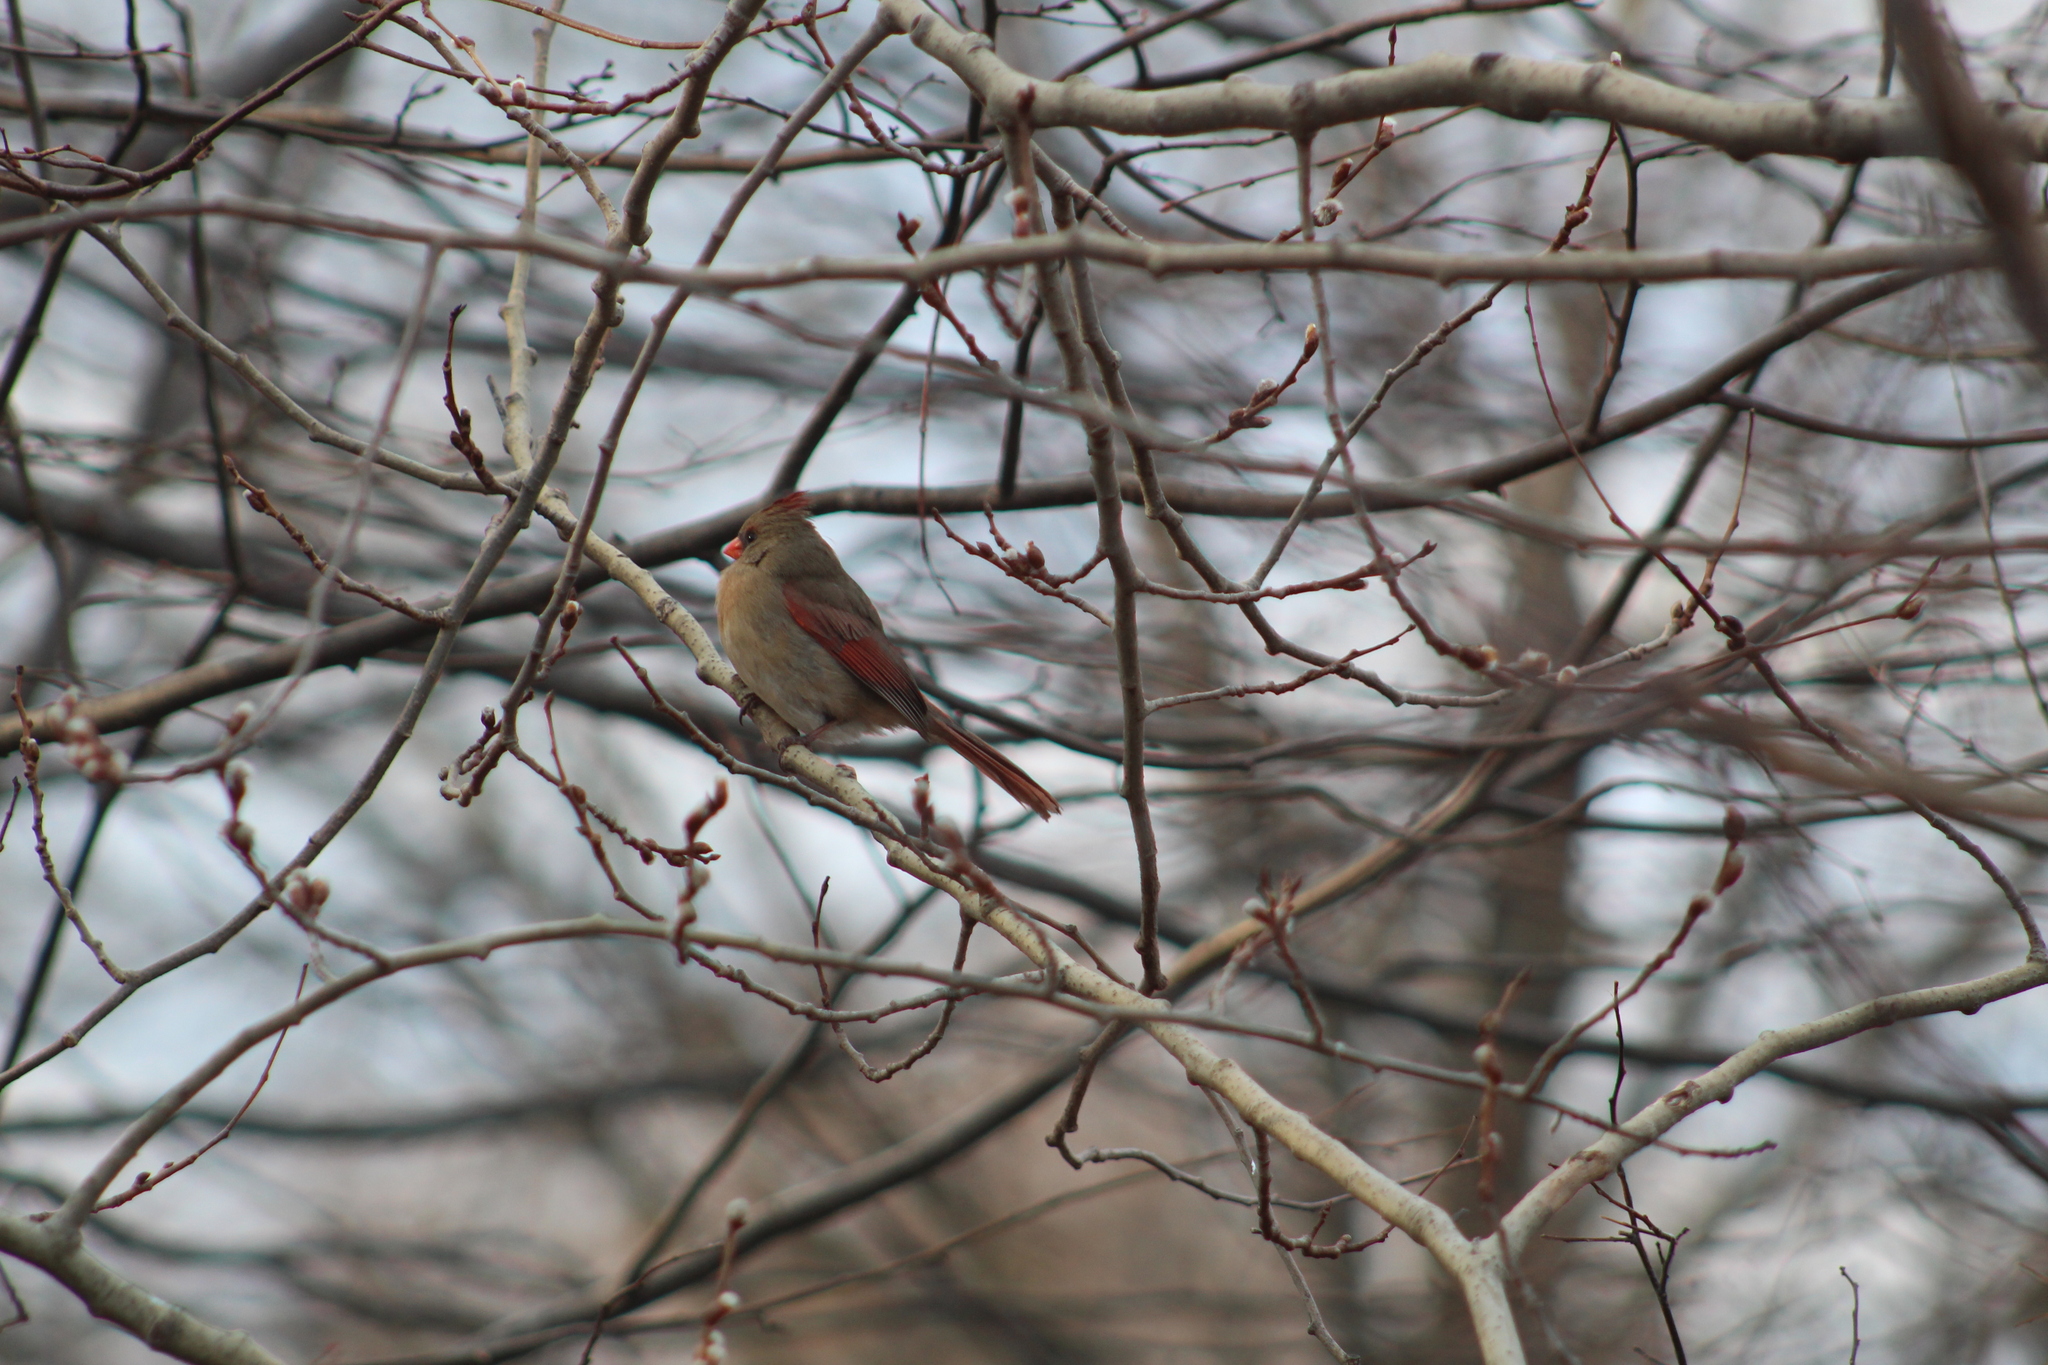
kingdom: Animalia
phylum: Chordata
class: Aves
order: Passeriformes
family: Cardinalidae
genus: Cardinalis
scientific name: Cardinalis cardinalis
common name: Northern cardinal
